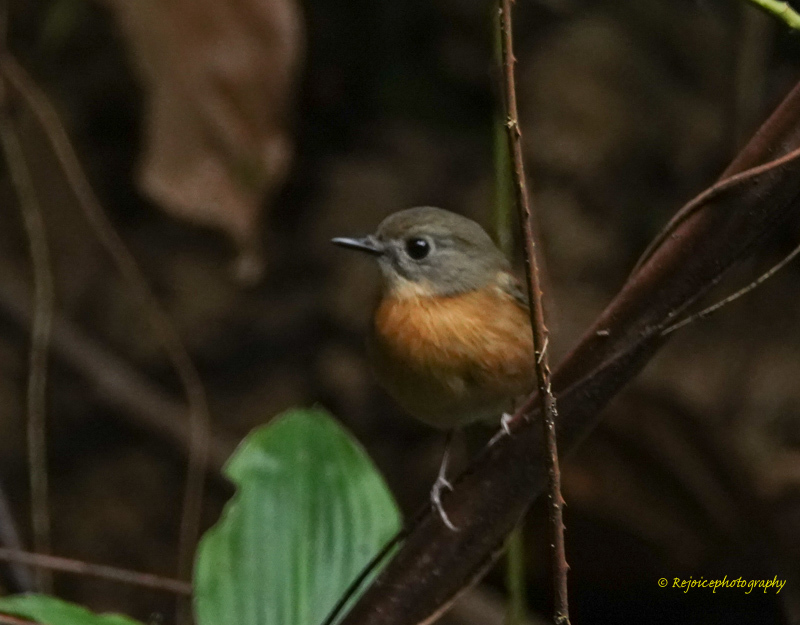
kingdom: Animalia
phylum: Chordata
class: Aves
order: Passeriformes
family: Muscicapidae
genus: Cyornis
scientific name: Cyornis poliogenys
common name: Pale-chinned blue flycatcher
